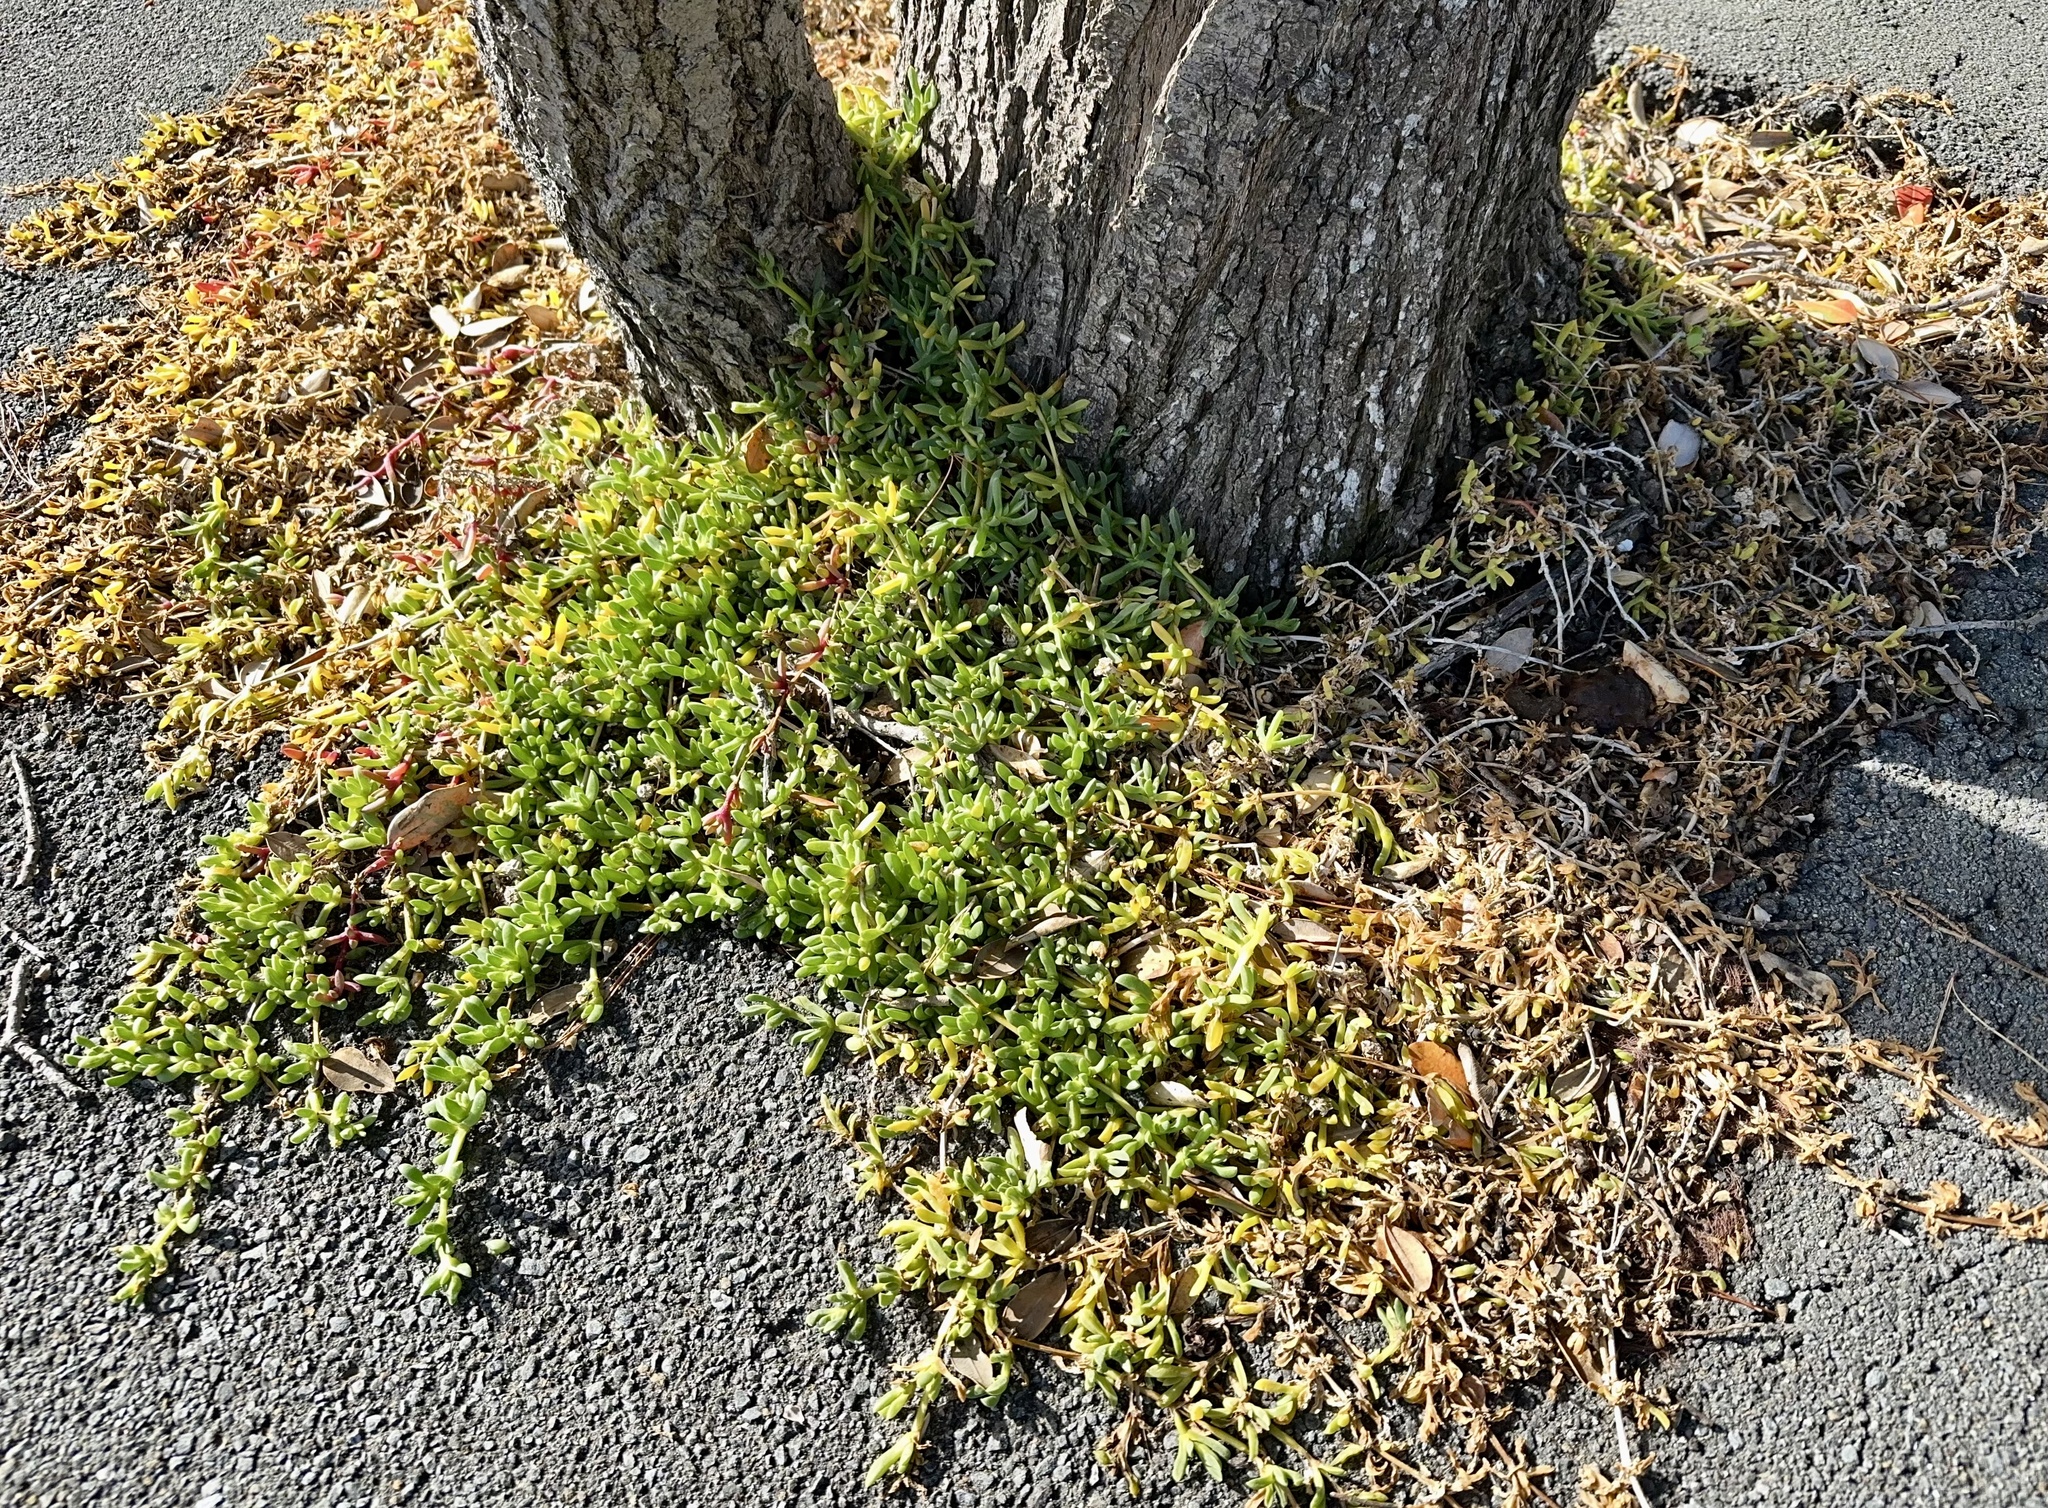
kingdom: Plantae
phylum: Tracheophyta
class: Magnoliopsida
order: Caryophyllales
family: Aizoaceae
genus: Disphyma
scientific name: Disphyma australe
